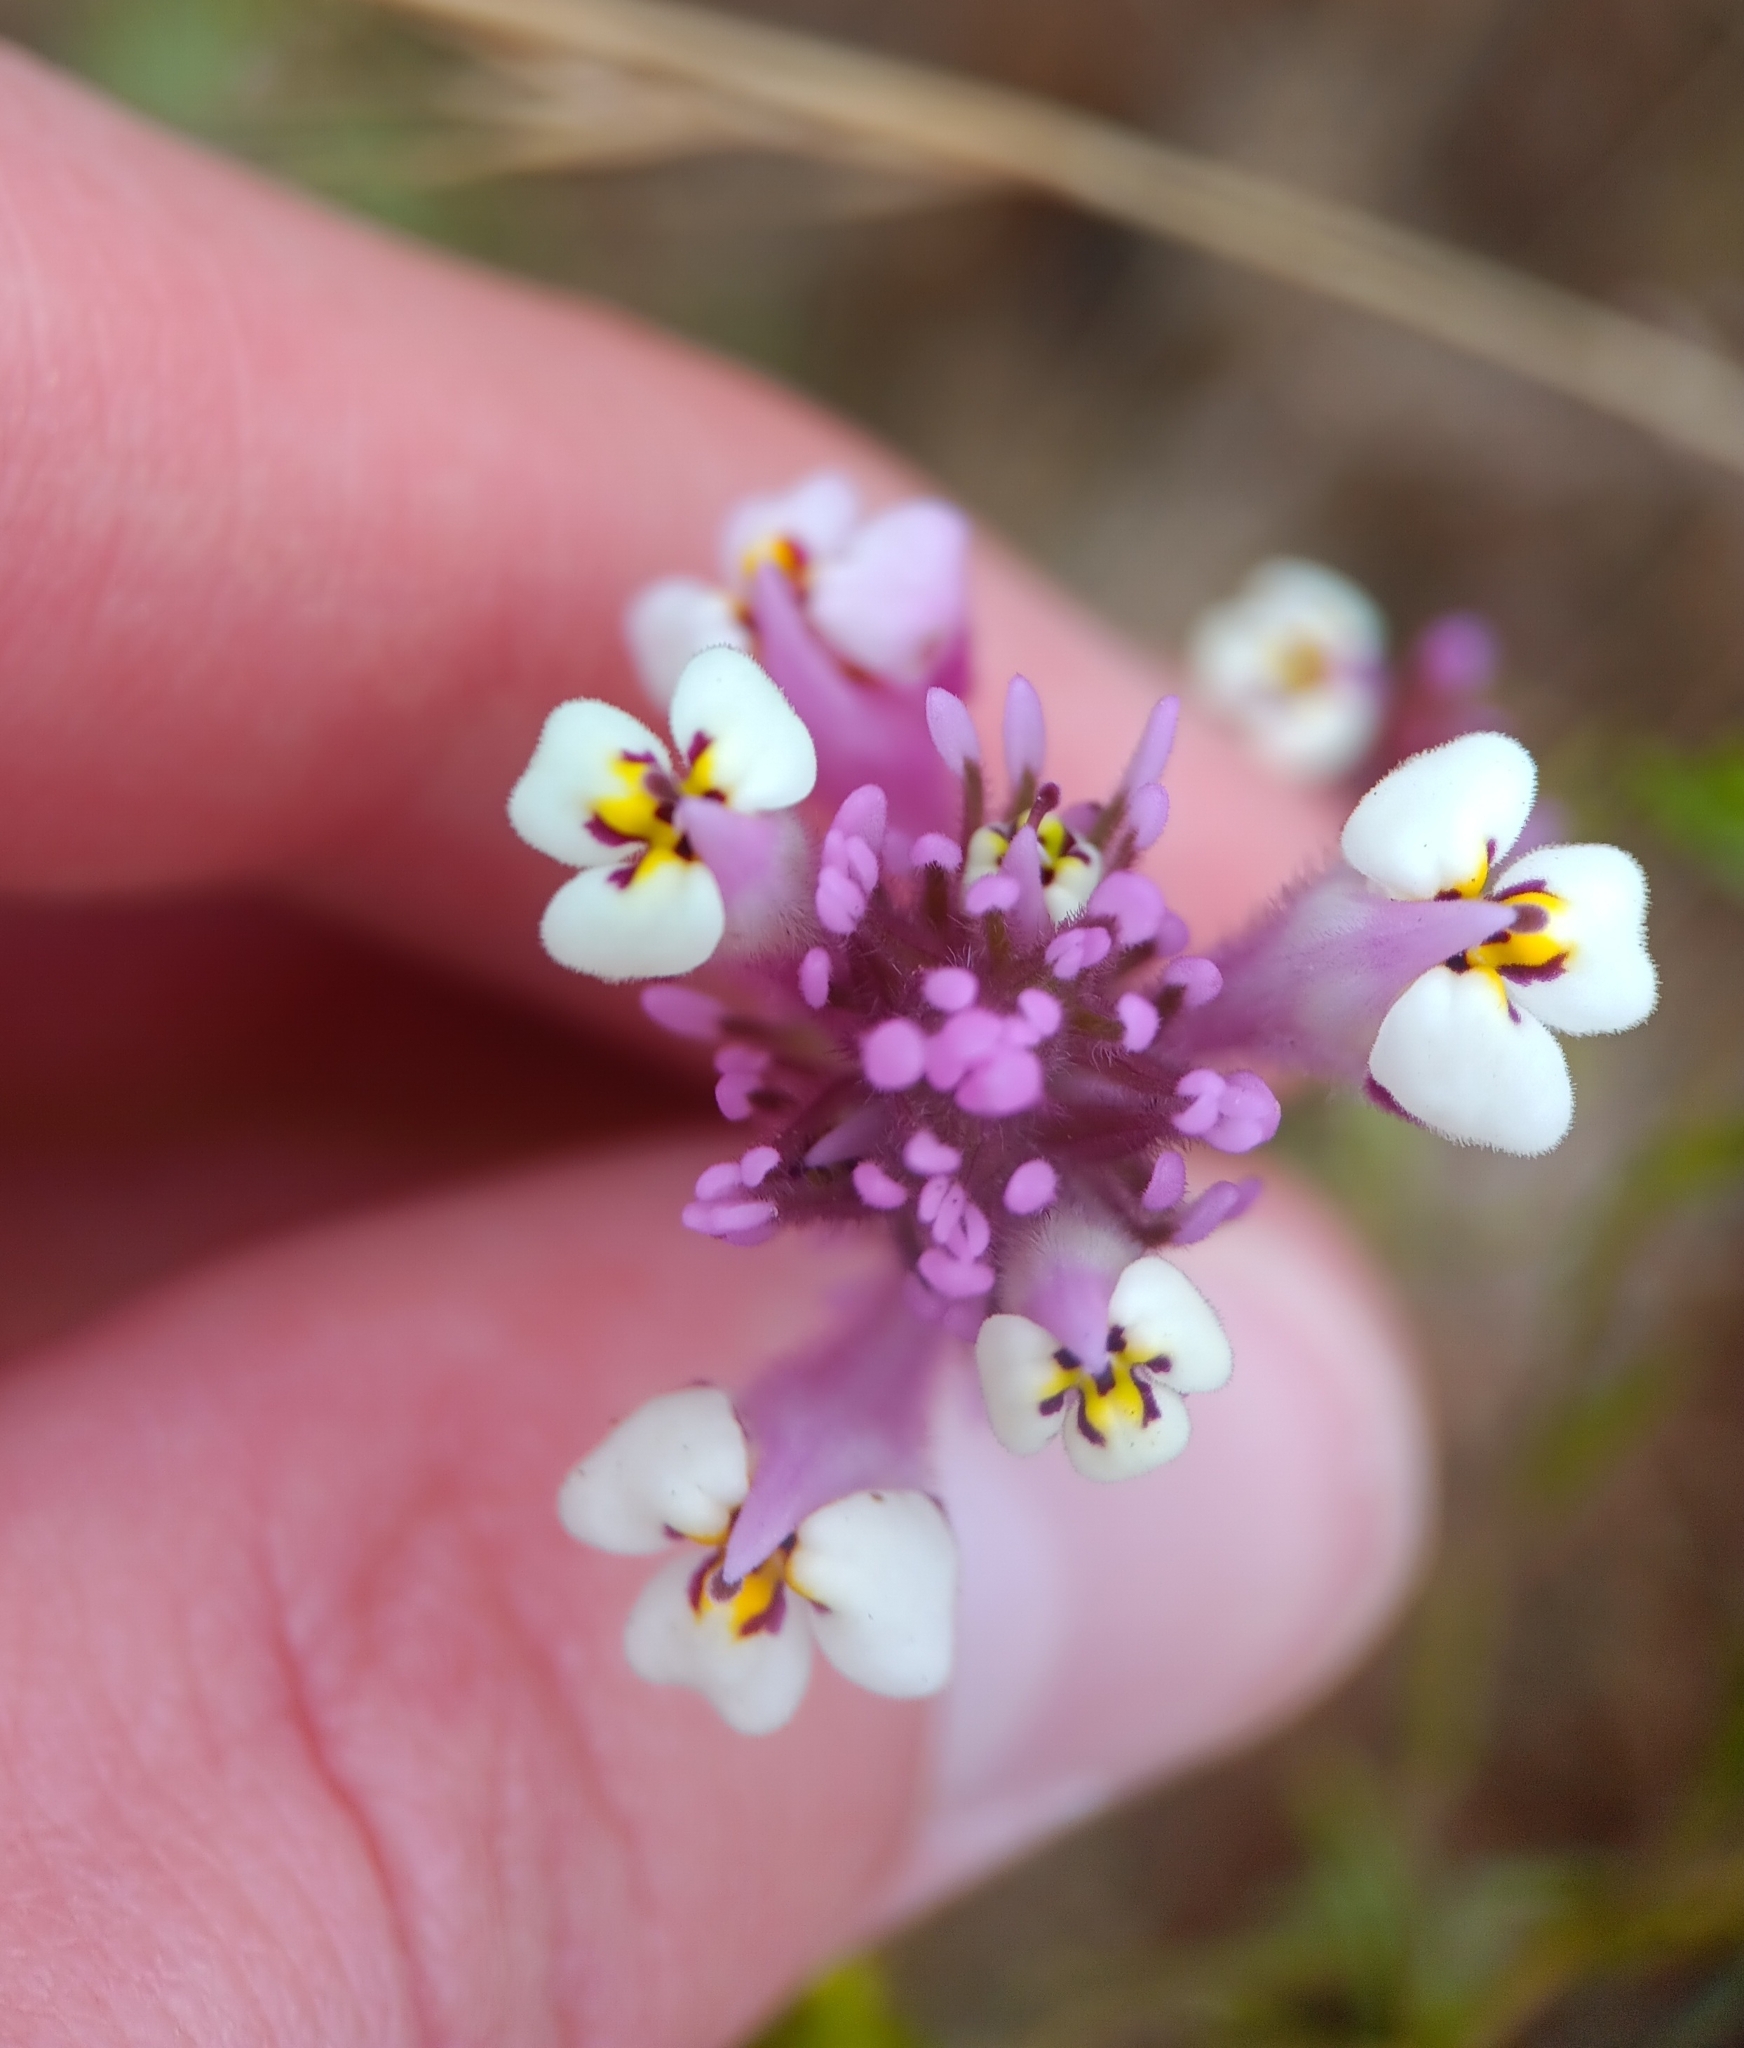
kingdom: Plantae
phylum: Tracheophyta
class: Magnoliopsida
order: Lamiales
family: Orobanchaceae
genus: Castilleja
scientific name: Castilleja densiflora
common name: Dense-flower indian paintbrush
